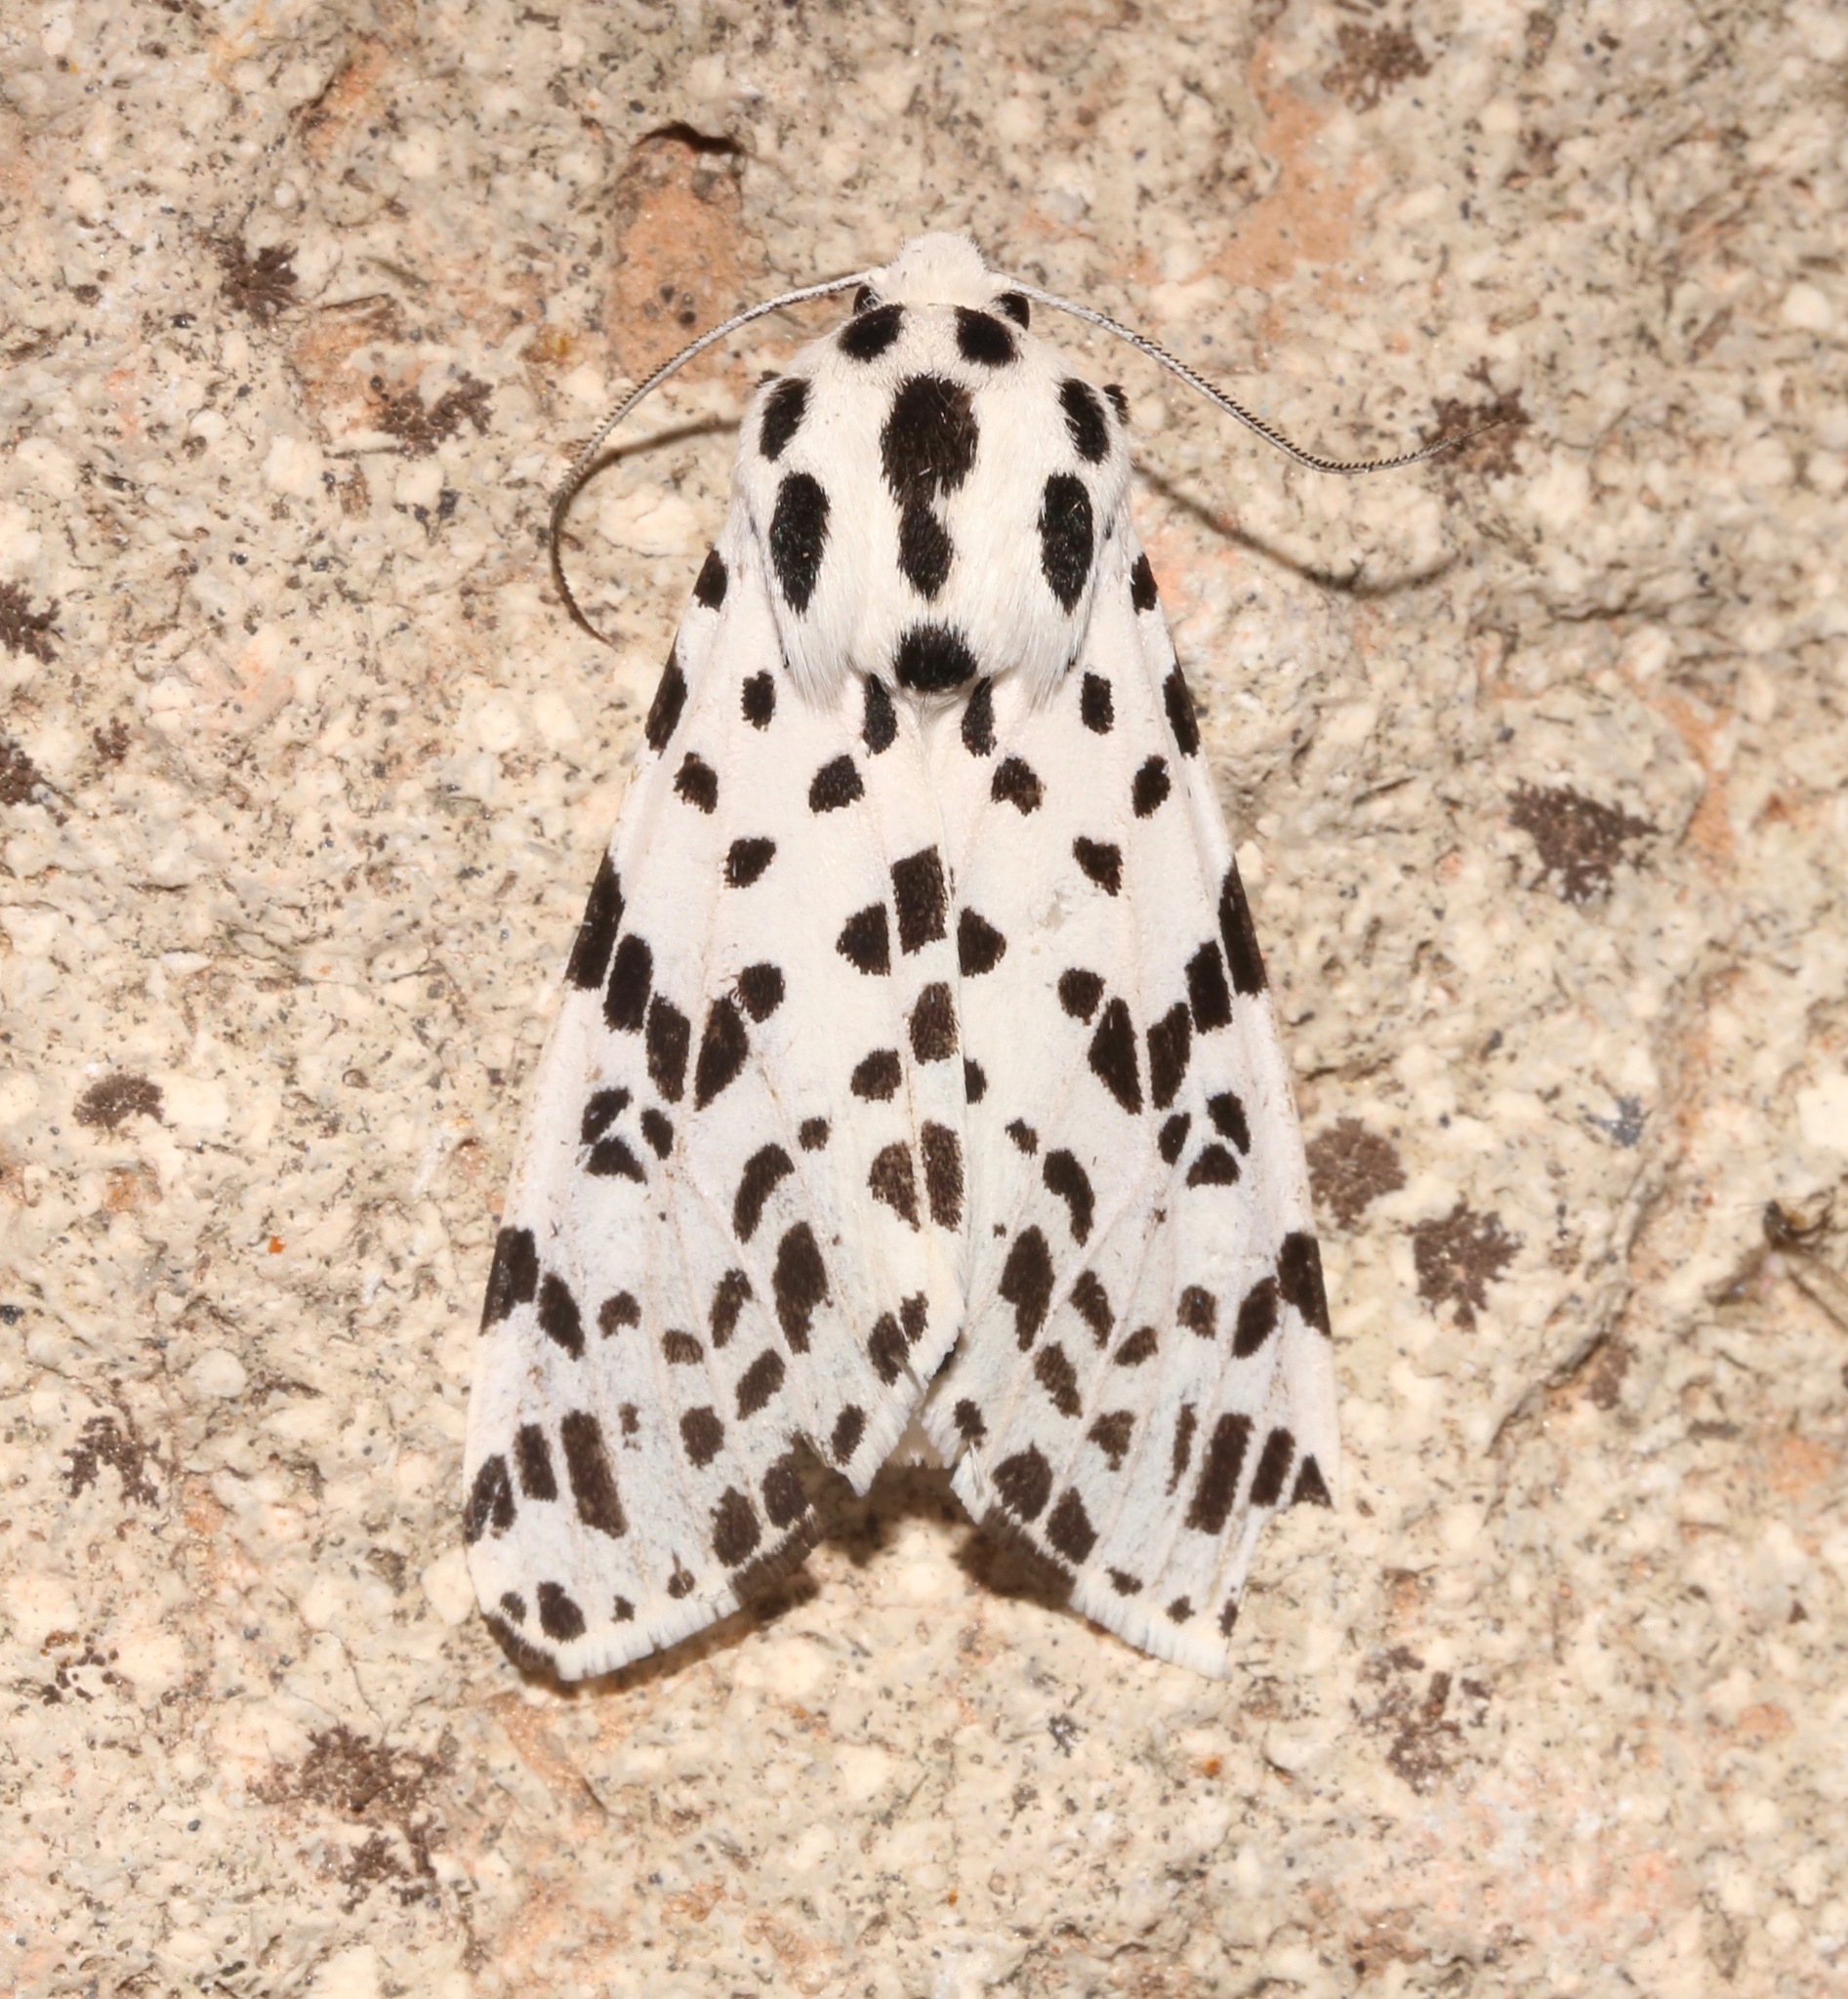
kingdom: Animalia
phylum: Arthropoda
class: Insecta
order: Lepidoptera
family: Erebidae
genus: Hypercompe
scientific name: Hypercompe permaculata
